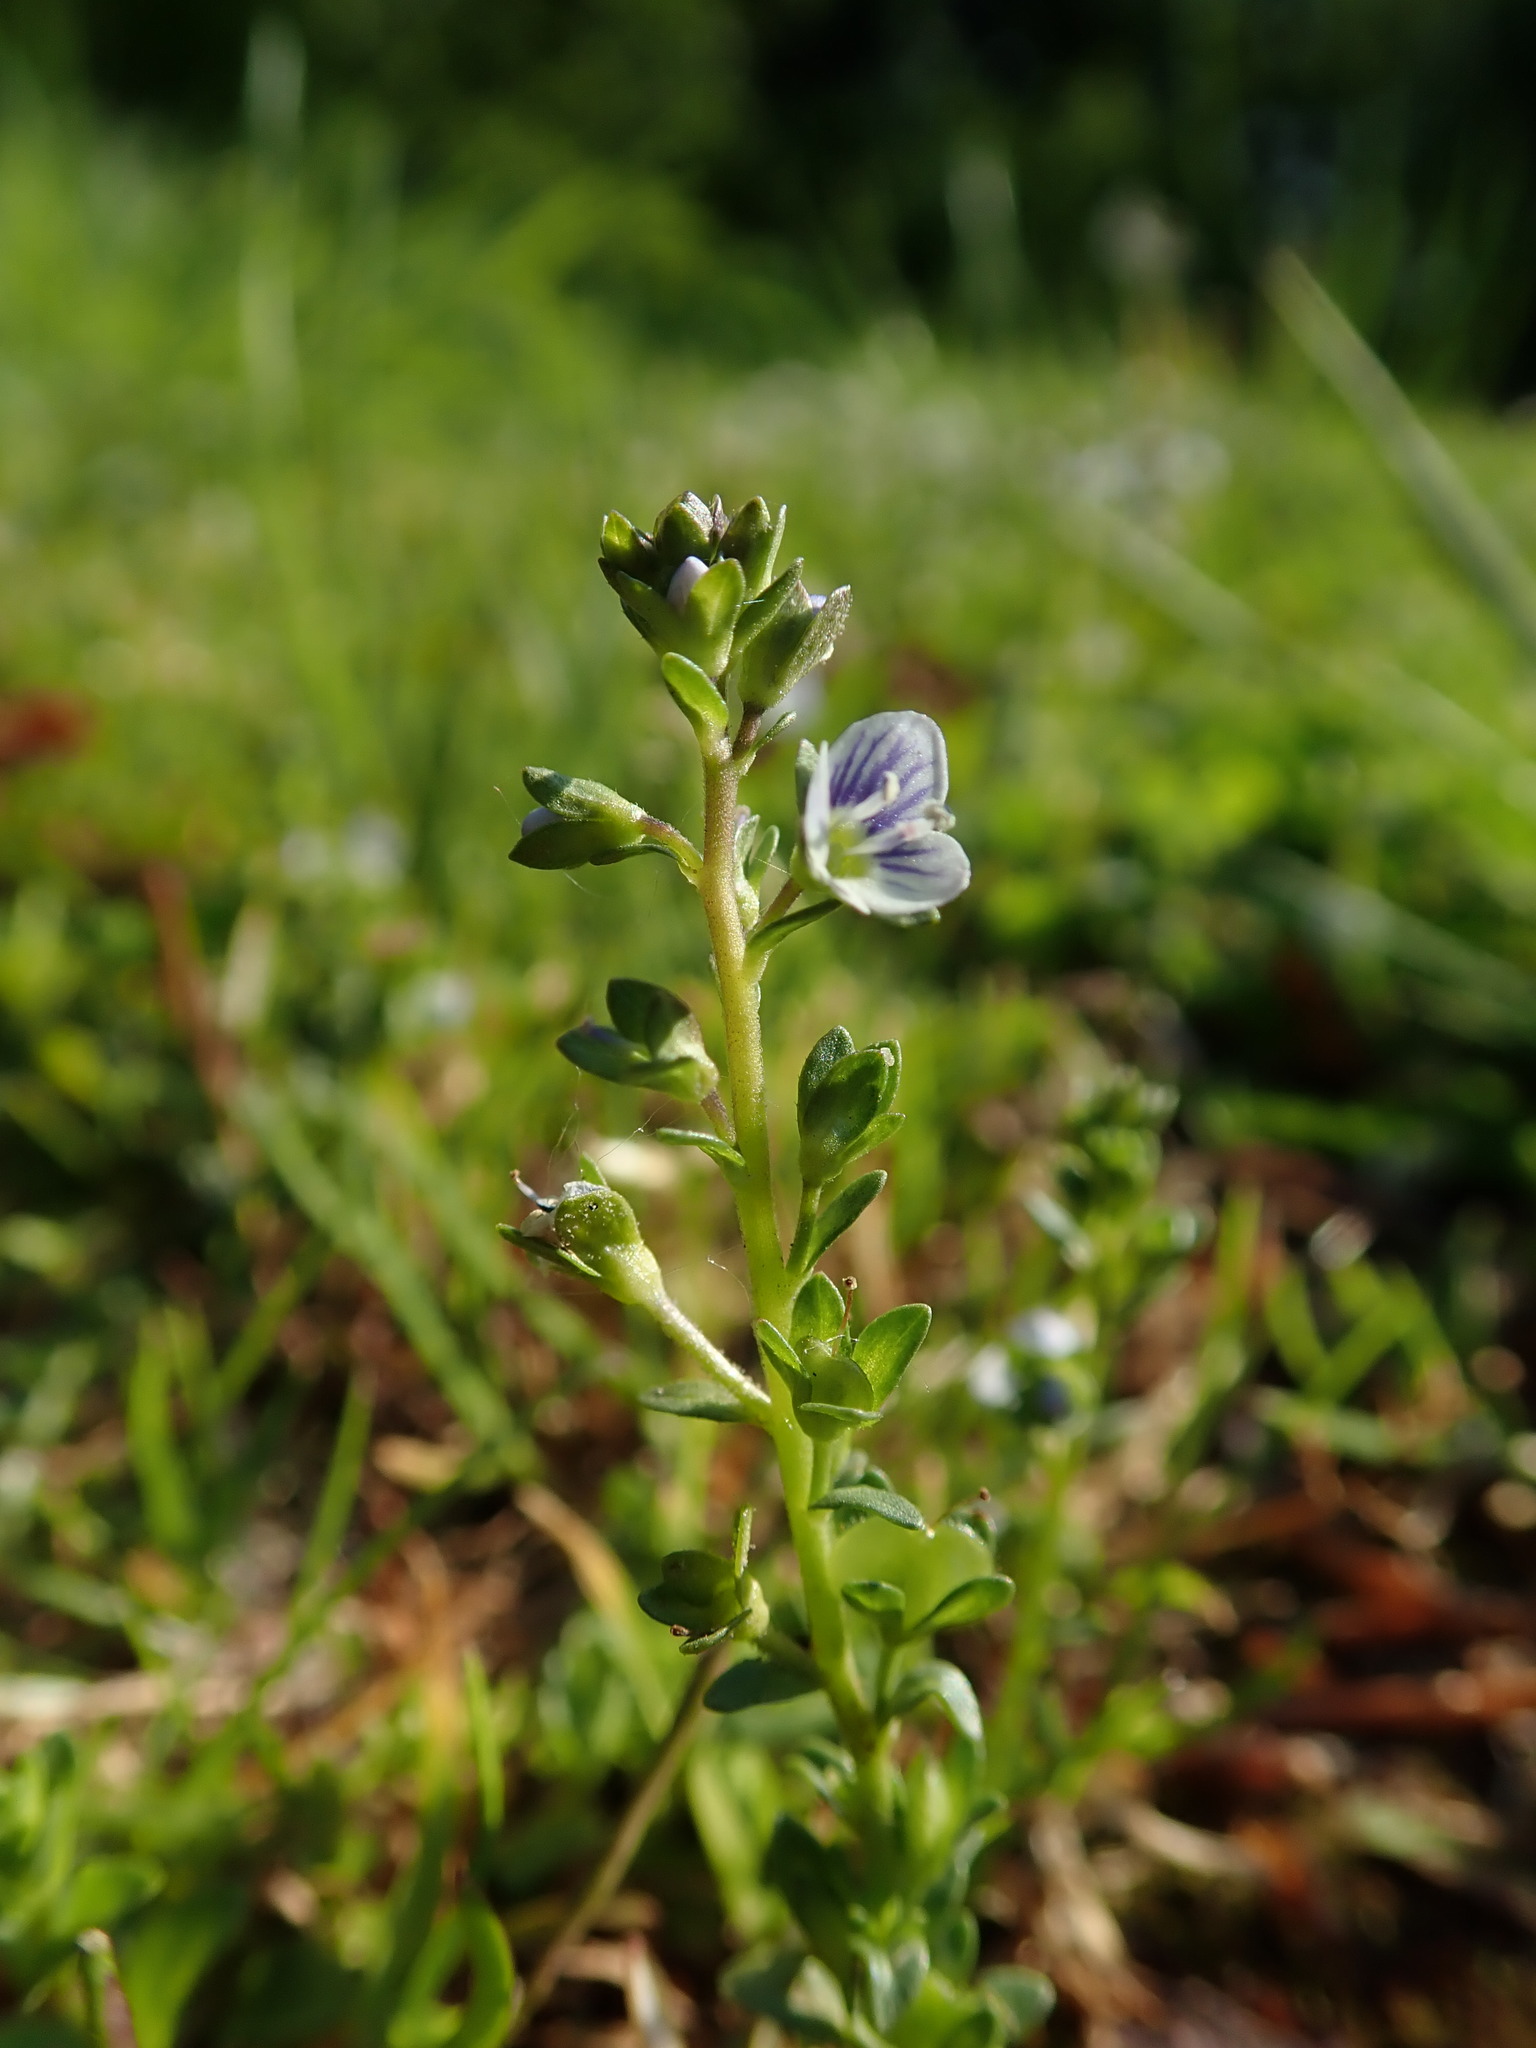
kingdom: Plantae
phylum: Tracheophyta
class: Magnoliopsida
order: Lamiales
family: Plantaginaceae
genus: Veronica
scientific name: Veronica serpyllifolia
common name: Thyme-leaved speedwell
